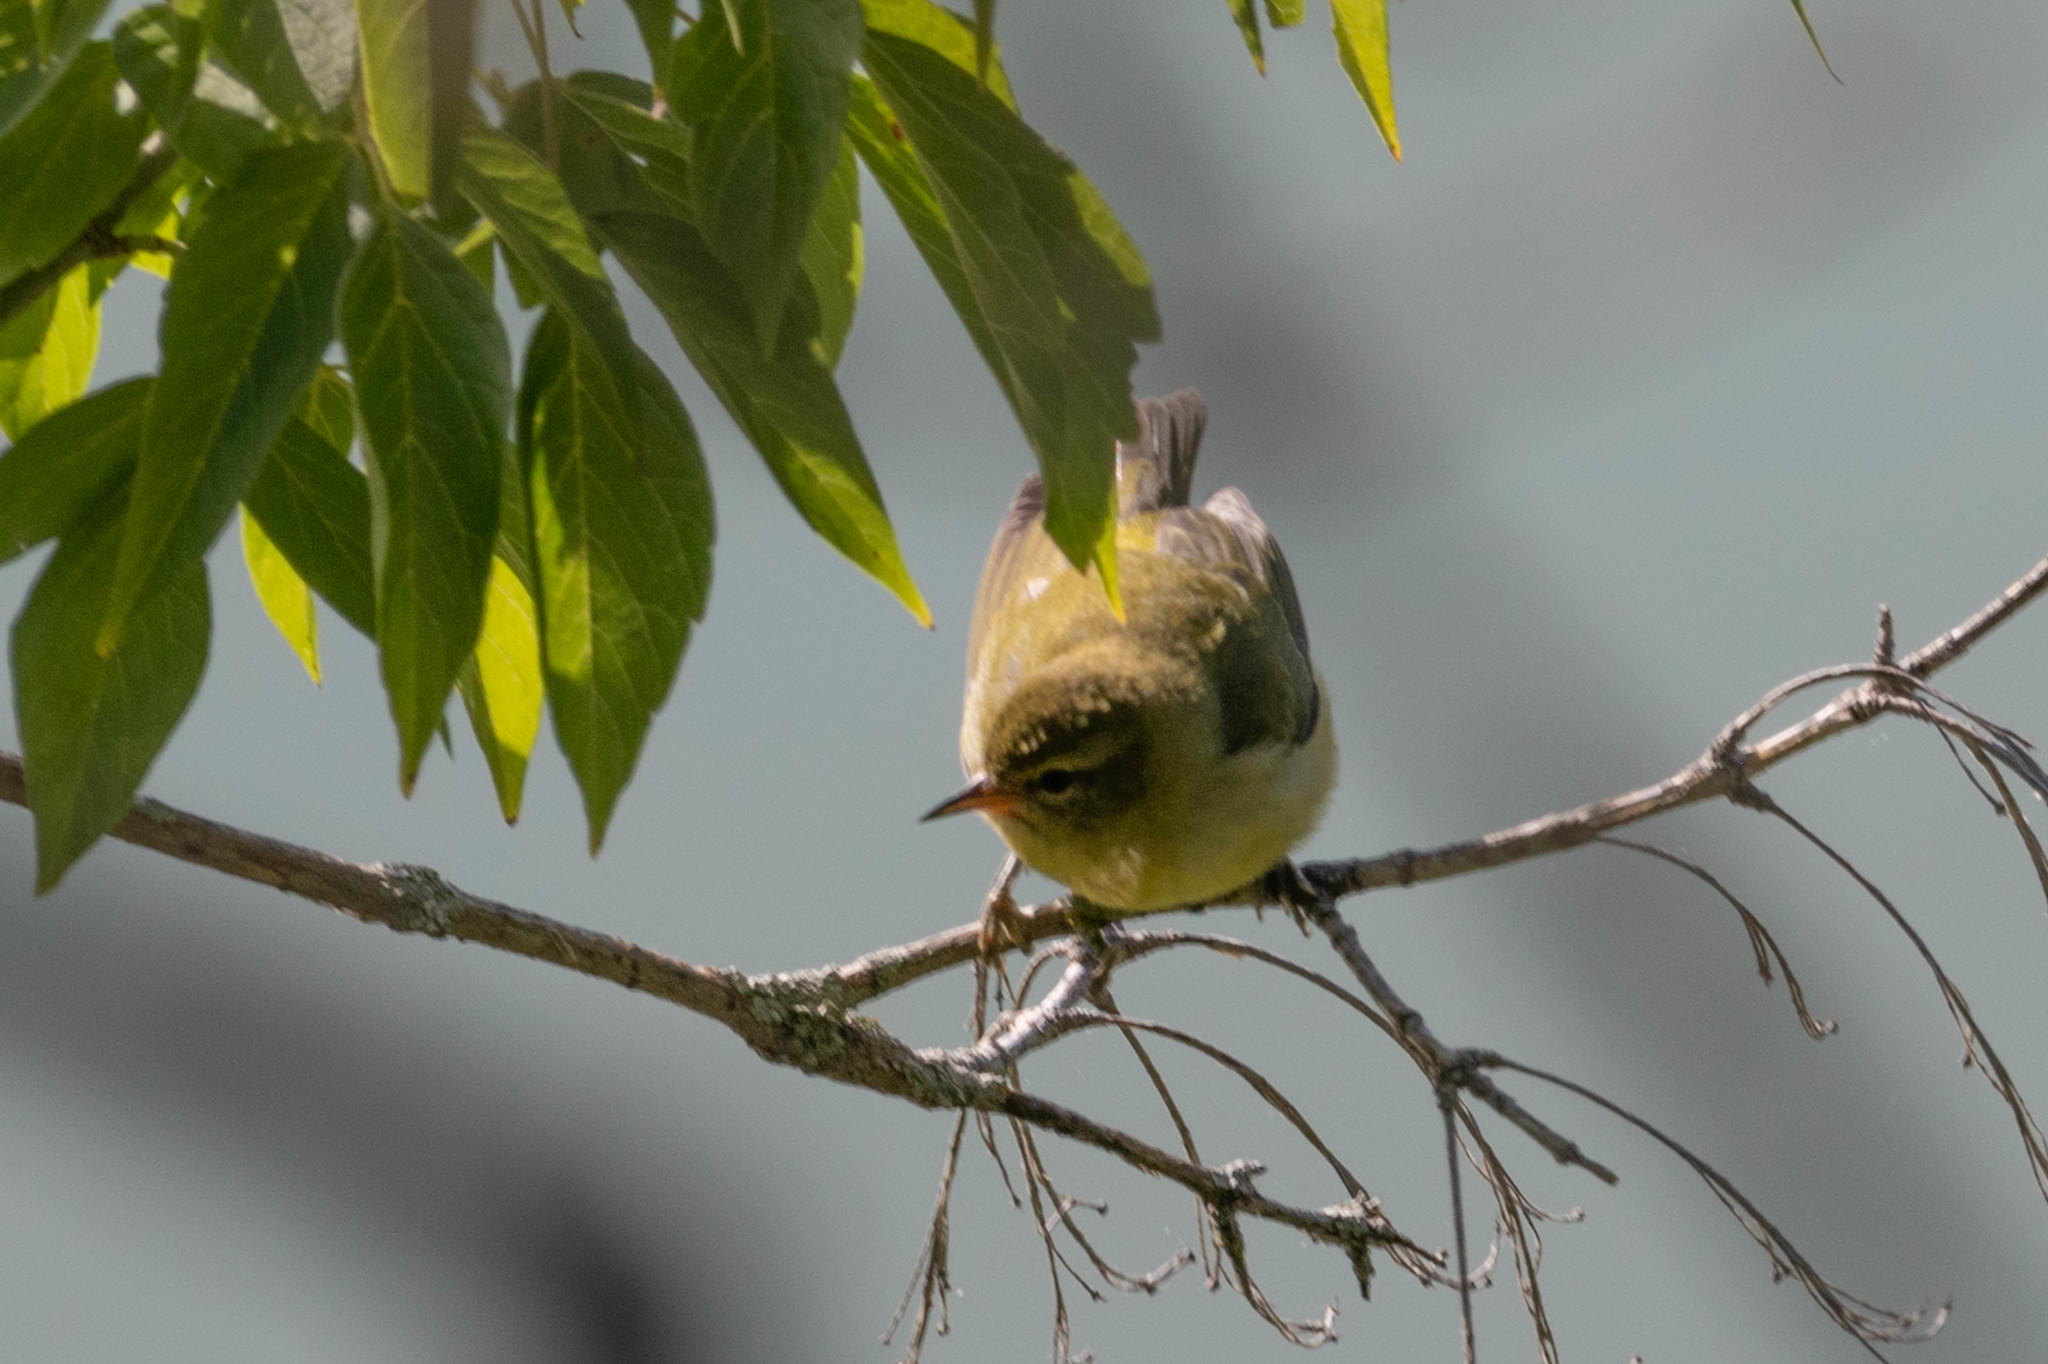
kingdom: Animalia
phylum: Chordata
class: Aves
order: Passeriformes
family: Parulidae
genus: Leiothlypis
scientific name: Leiothlypis peregrina
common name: Tennessee warbler
